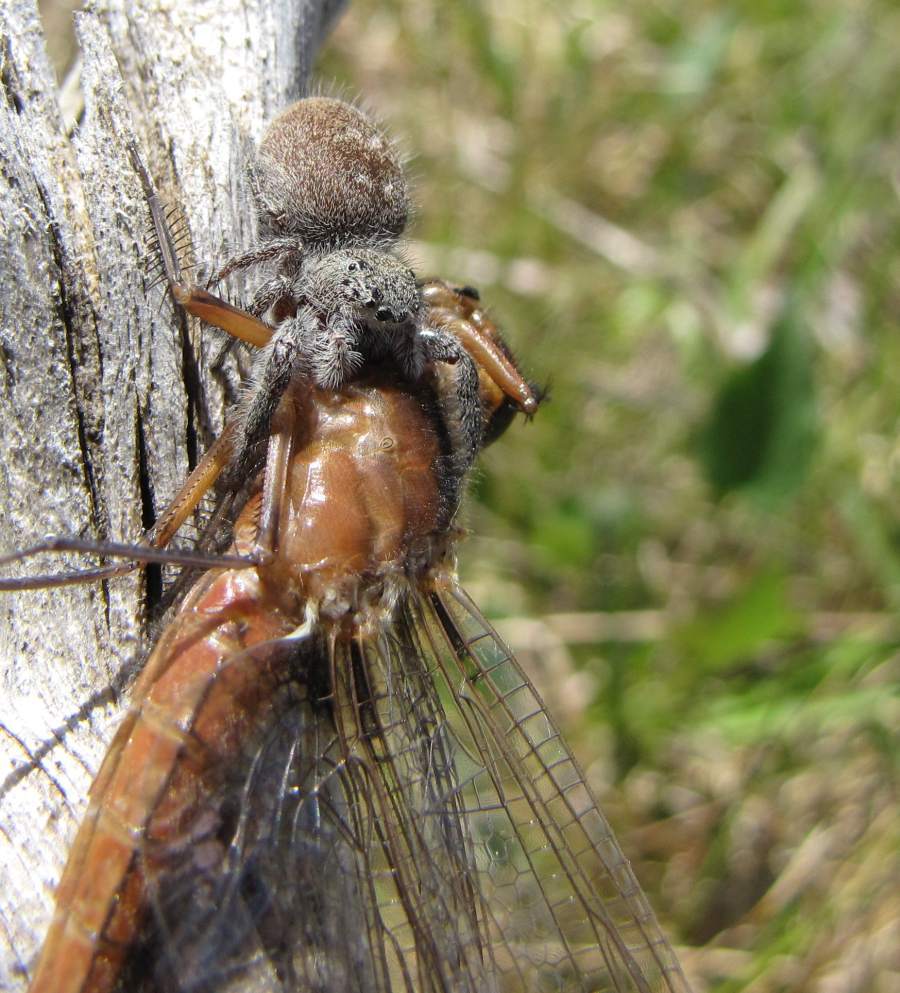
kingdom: Animalia
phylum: Arthropoda
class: Arachnida
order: Araneae
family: Salticidae
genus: Phidippus
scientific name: Phidippus princeps
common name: Grayish jumping spider
